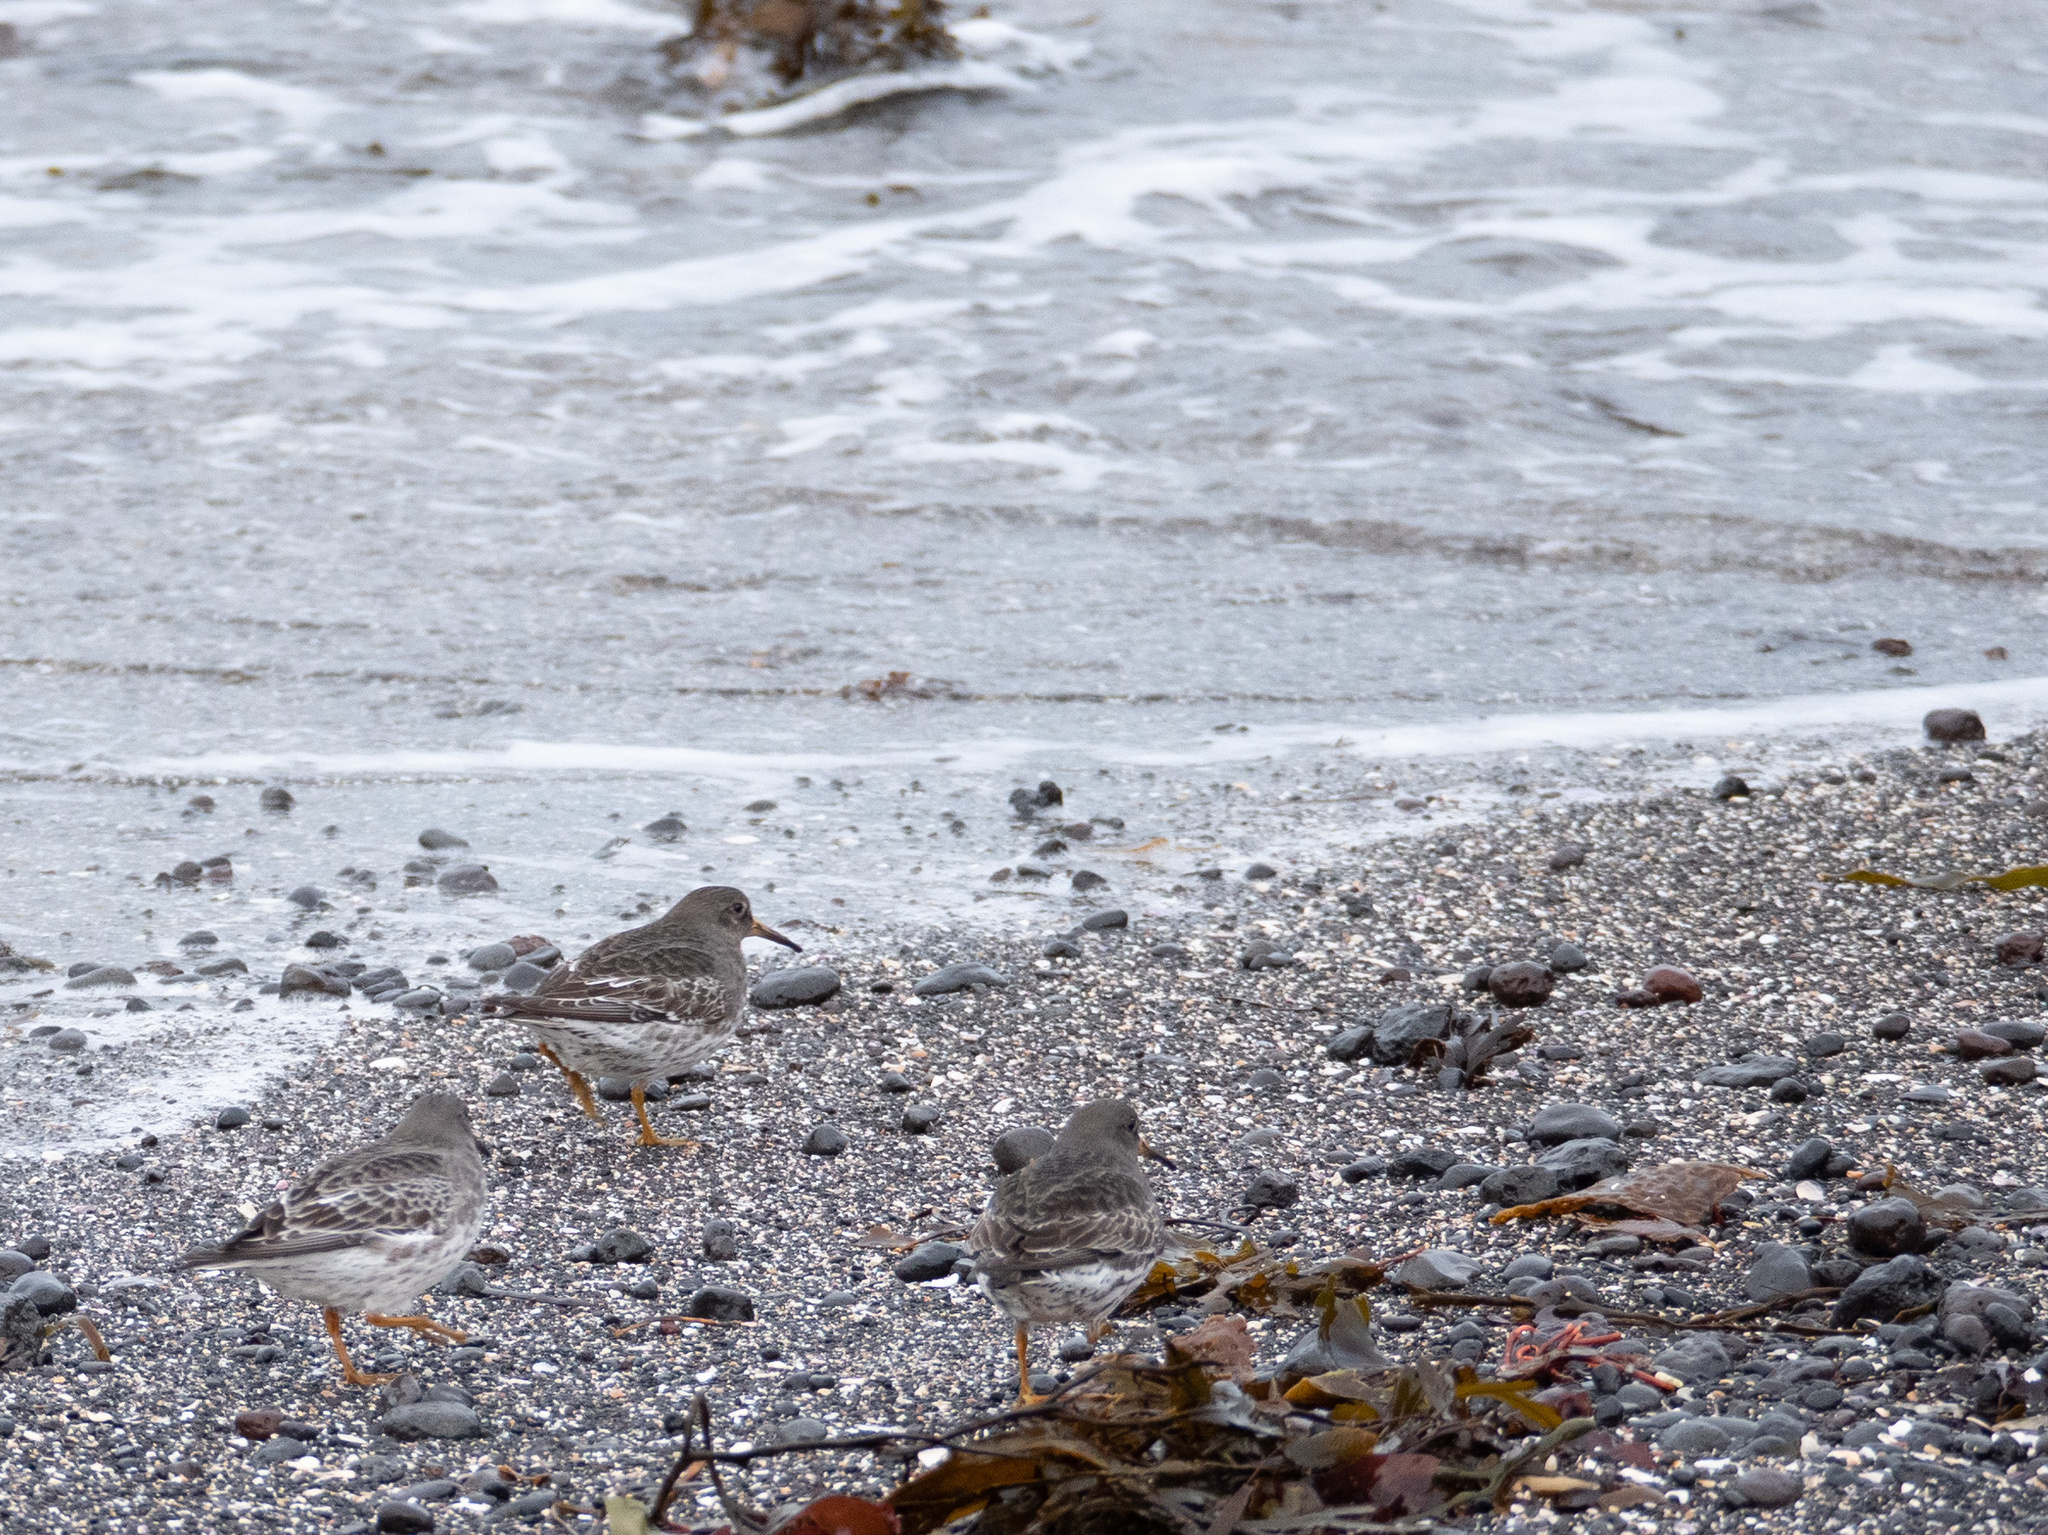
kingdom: Animalia
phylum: Chordata
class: Aves
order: Charadriiformes
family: Scolopacidae
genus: Calidris
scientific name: Calidris maritima
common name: Purple sandpiper
